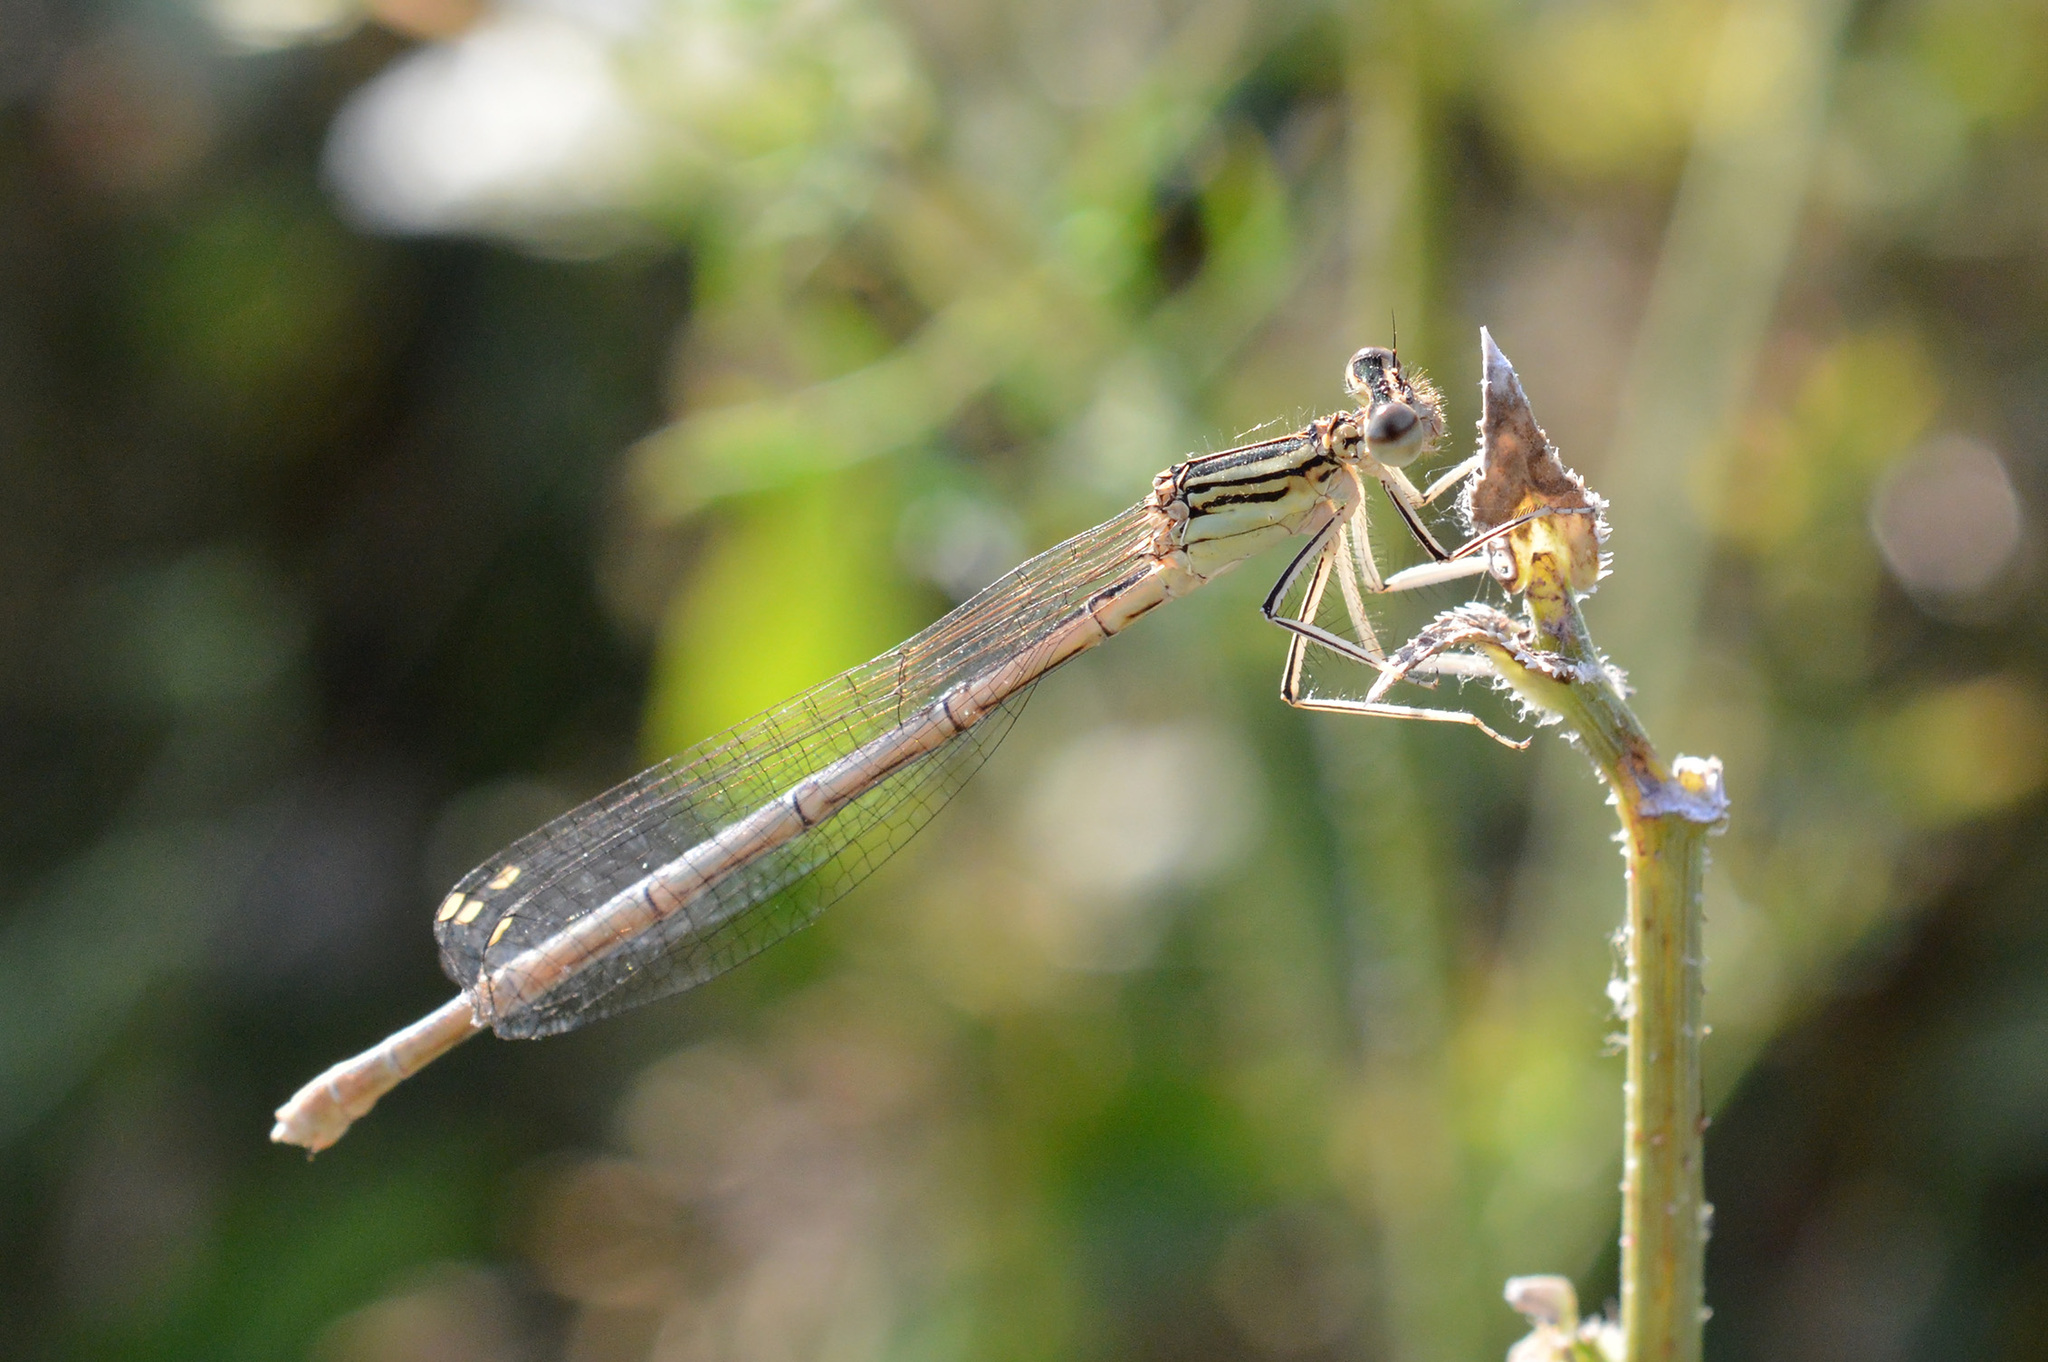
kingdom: Animalia
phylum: Arthropoda
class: Insecta
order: Odonata
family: Platycnemididae
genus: Platycnemis
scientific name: Platycnemis pennipes
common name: White-legged damselfly
